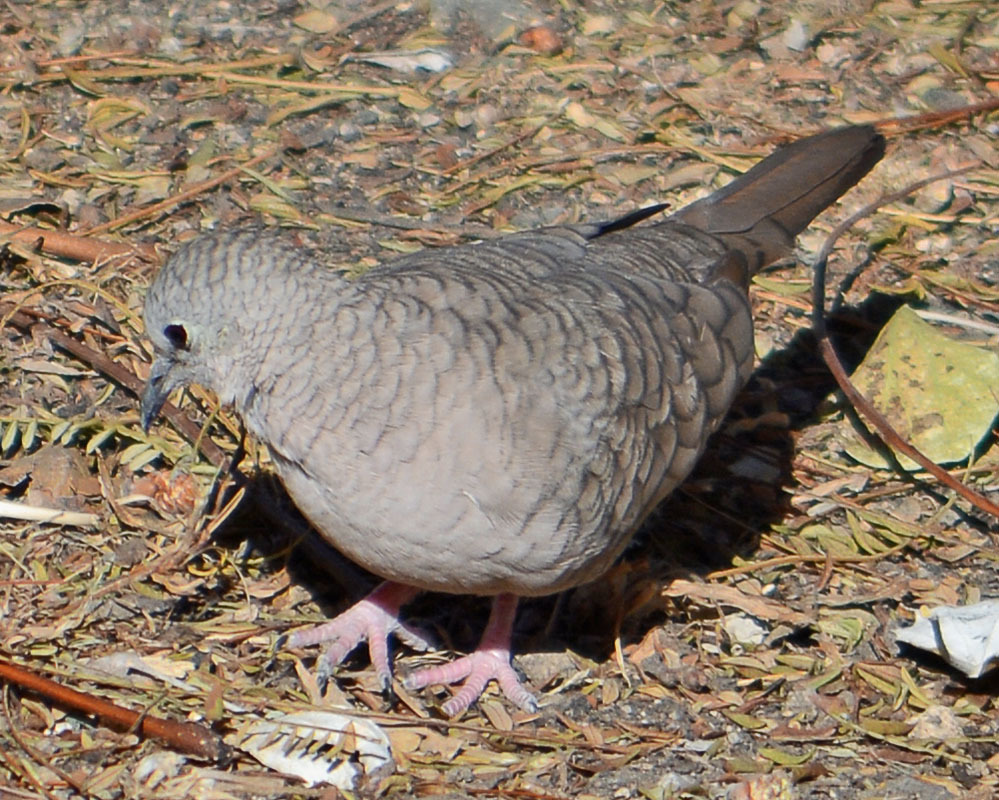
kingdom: Animalia
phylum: Chordata
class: Aves
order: Columbiformes
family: Columbidae
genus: Columbina
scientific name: Columbina inca
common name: Inca dove
